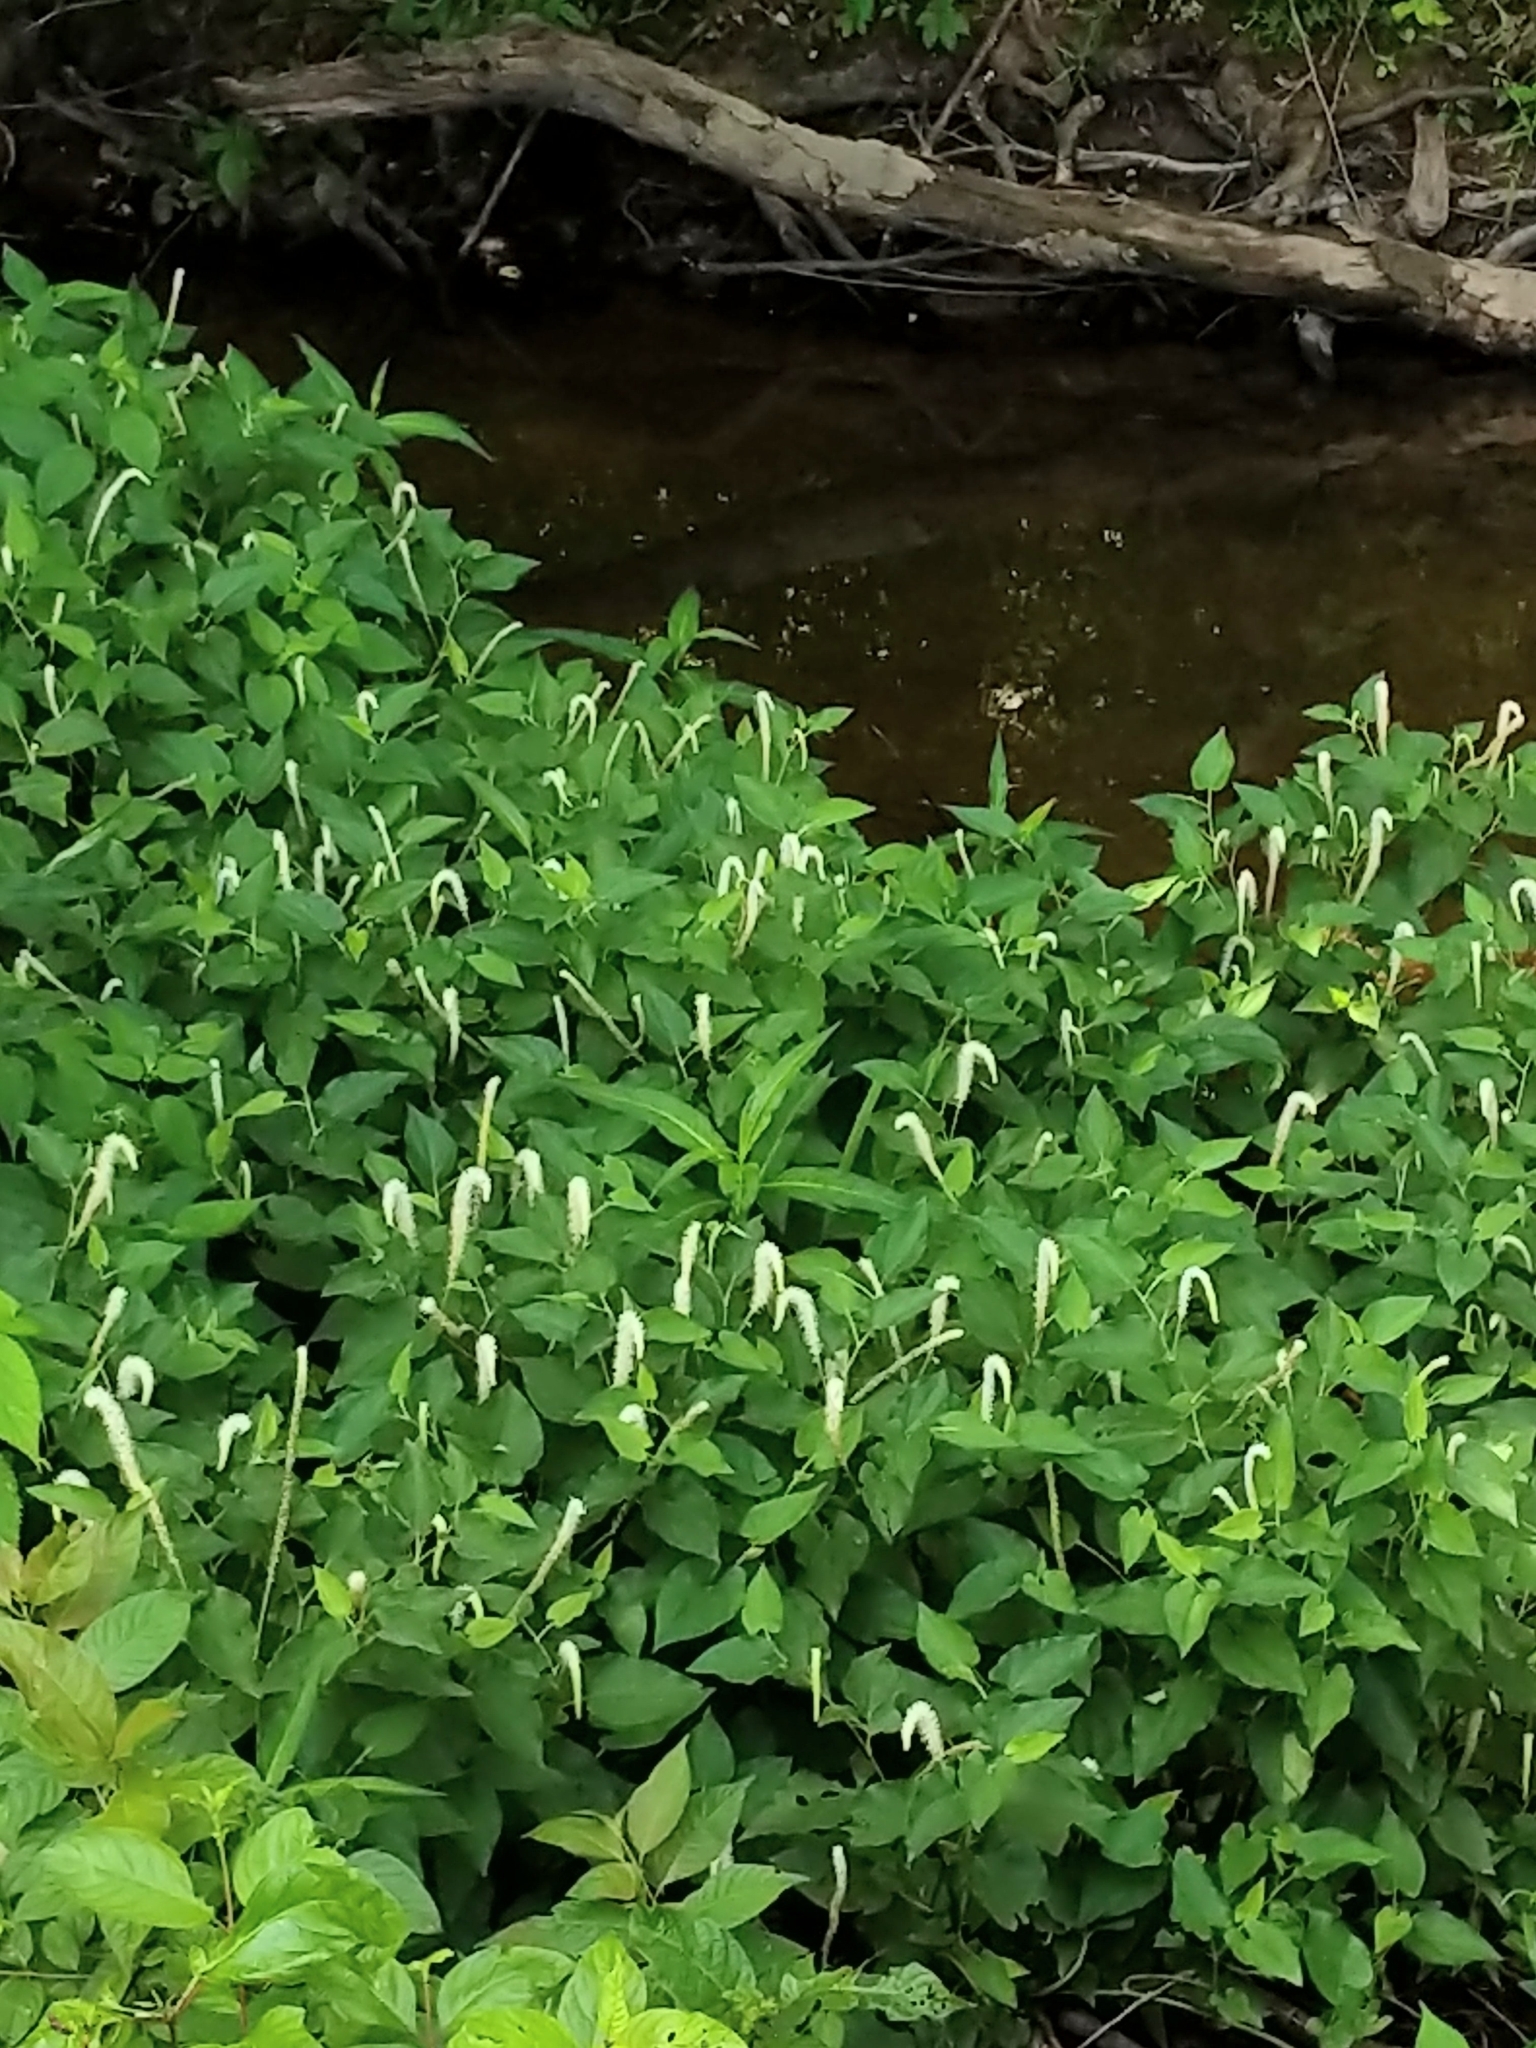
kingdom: Plantae
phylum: Tracheophyta
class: Magnoliopsida
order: Piperales
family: Saururaceae
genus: Saururus
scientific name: Saururus cernuus
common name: Lizard's-tail
